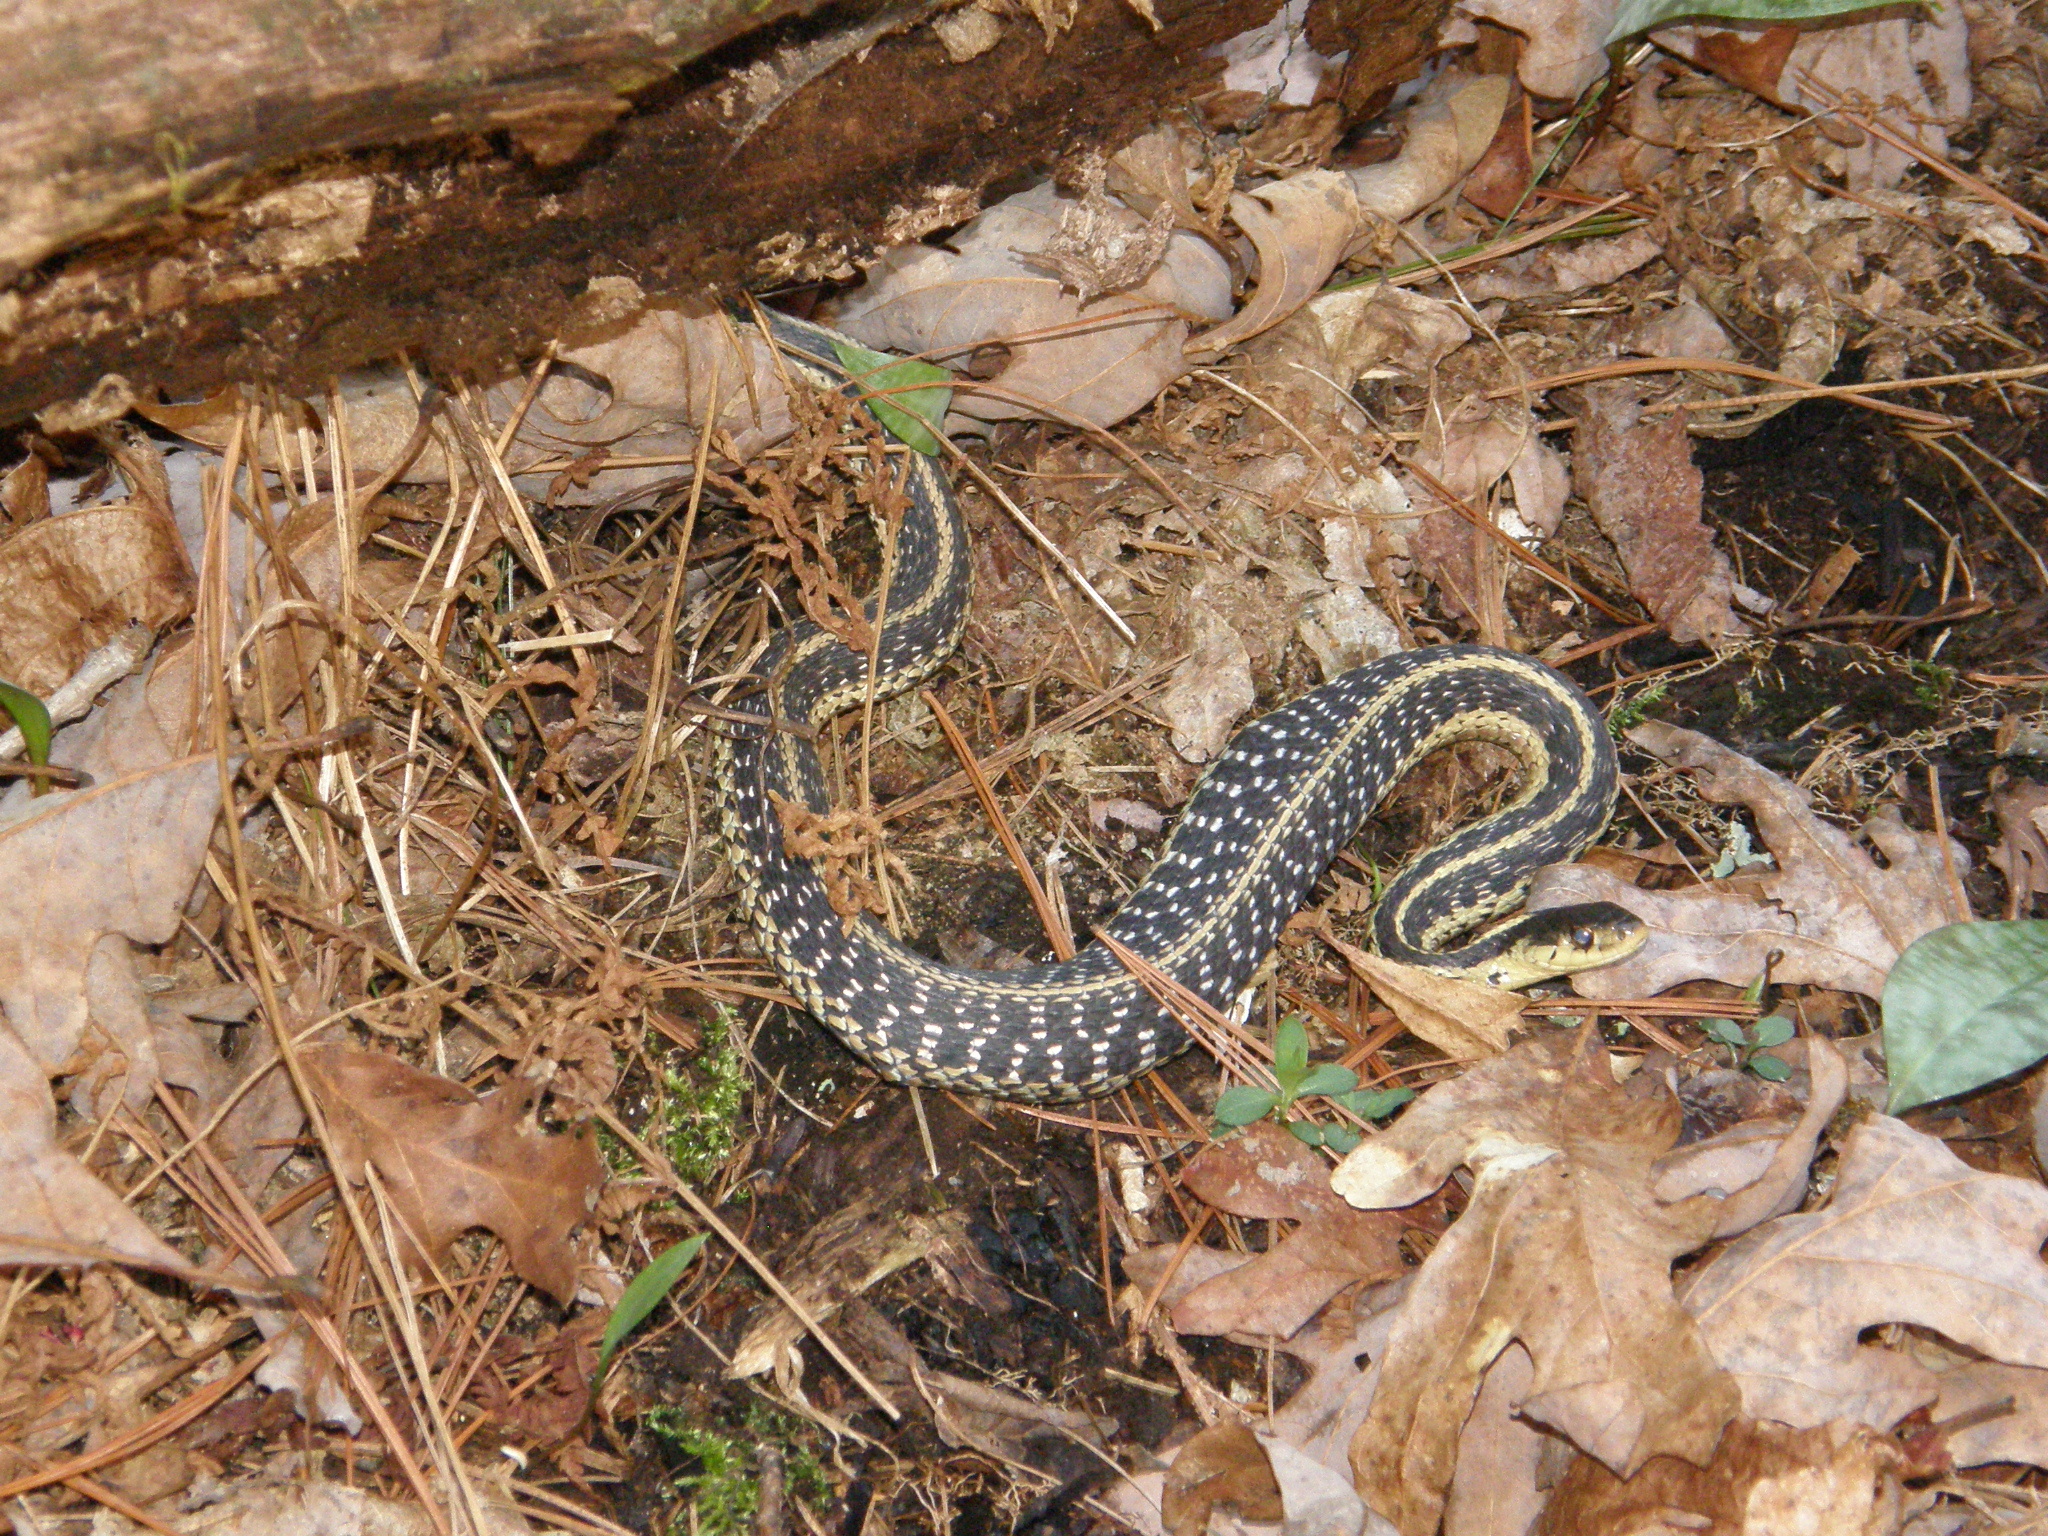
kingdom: Animalia
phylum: Chordata
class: Squamata
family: Colubridae
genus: Thamnophis
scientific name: Thamnophis sirtalis
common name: Common garter snake
